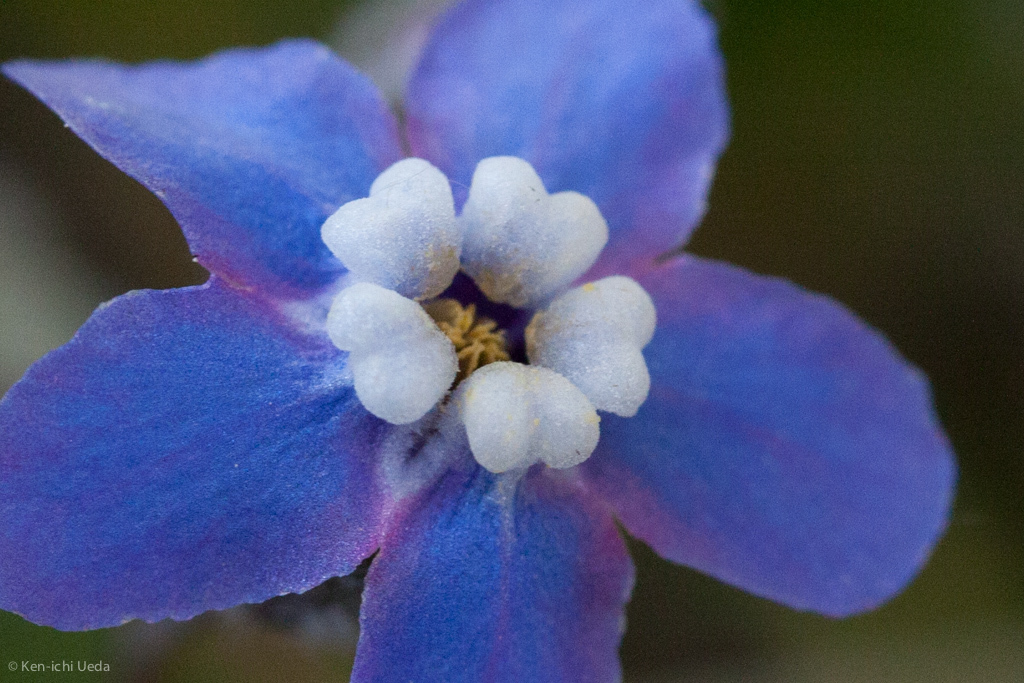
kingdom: Plantae
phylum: Tracheophyta
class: Magnoliopsida
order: Boraginales
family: Boraginaceae
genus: Adelinia
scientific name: Adelinia grande
